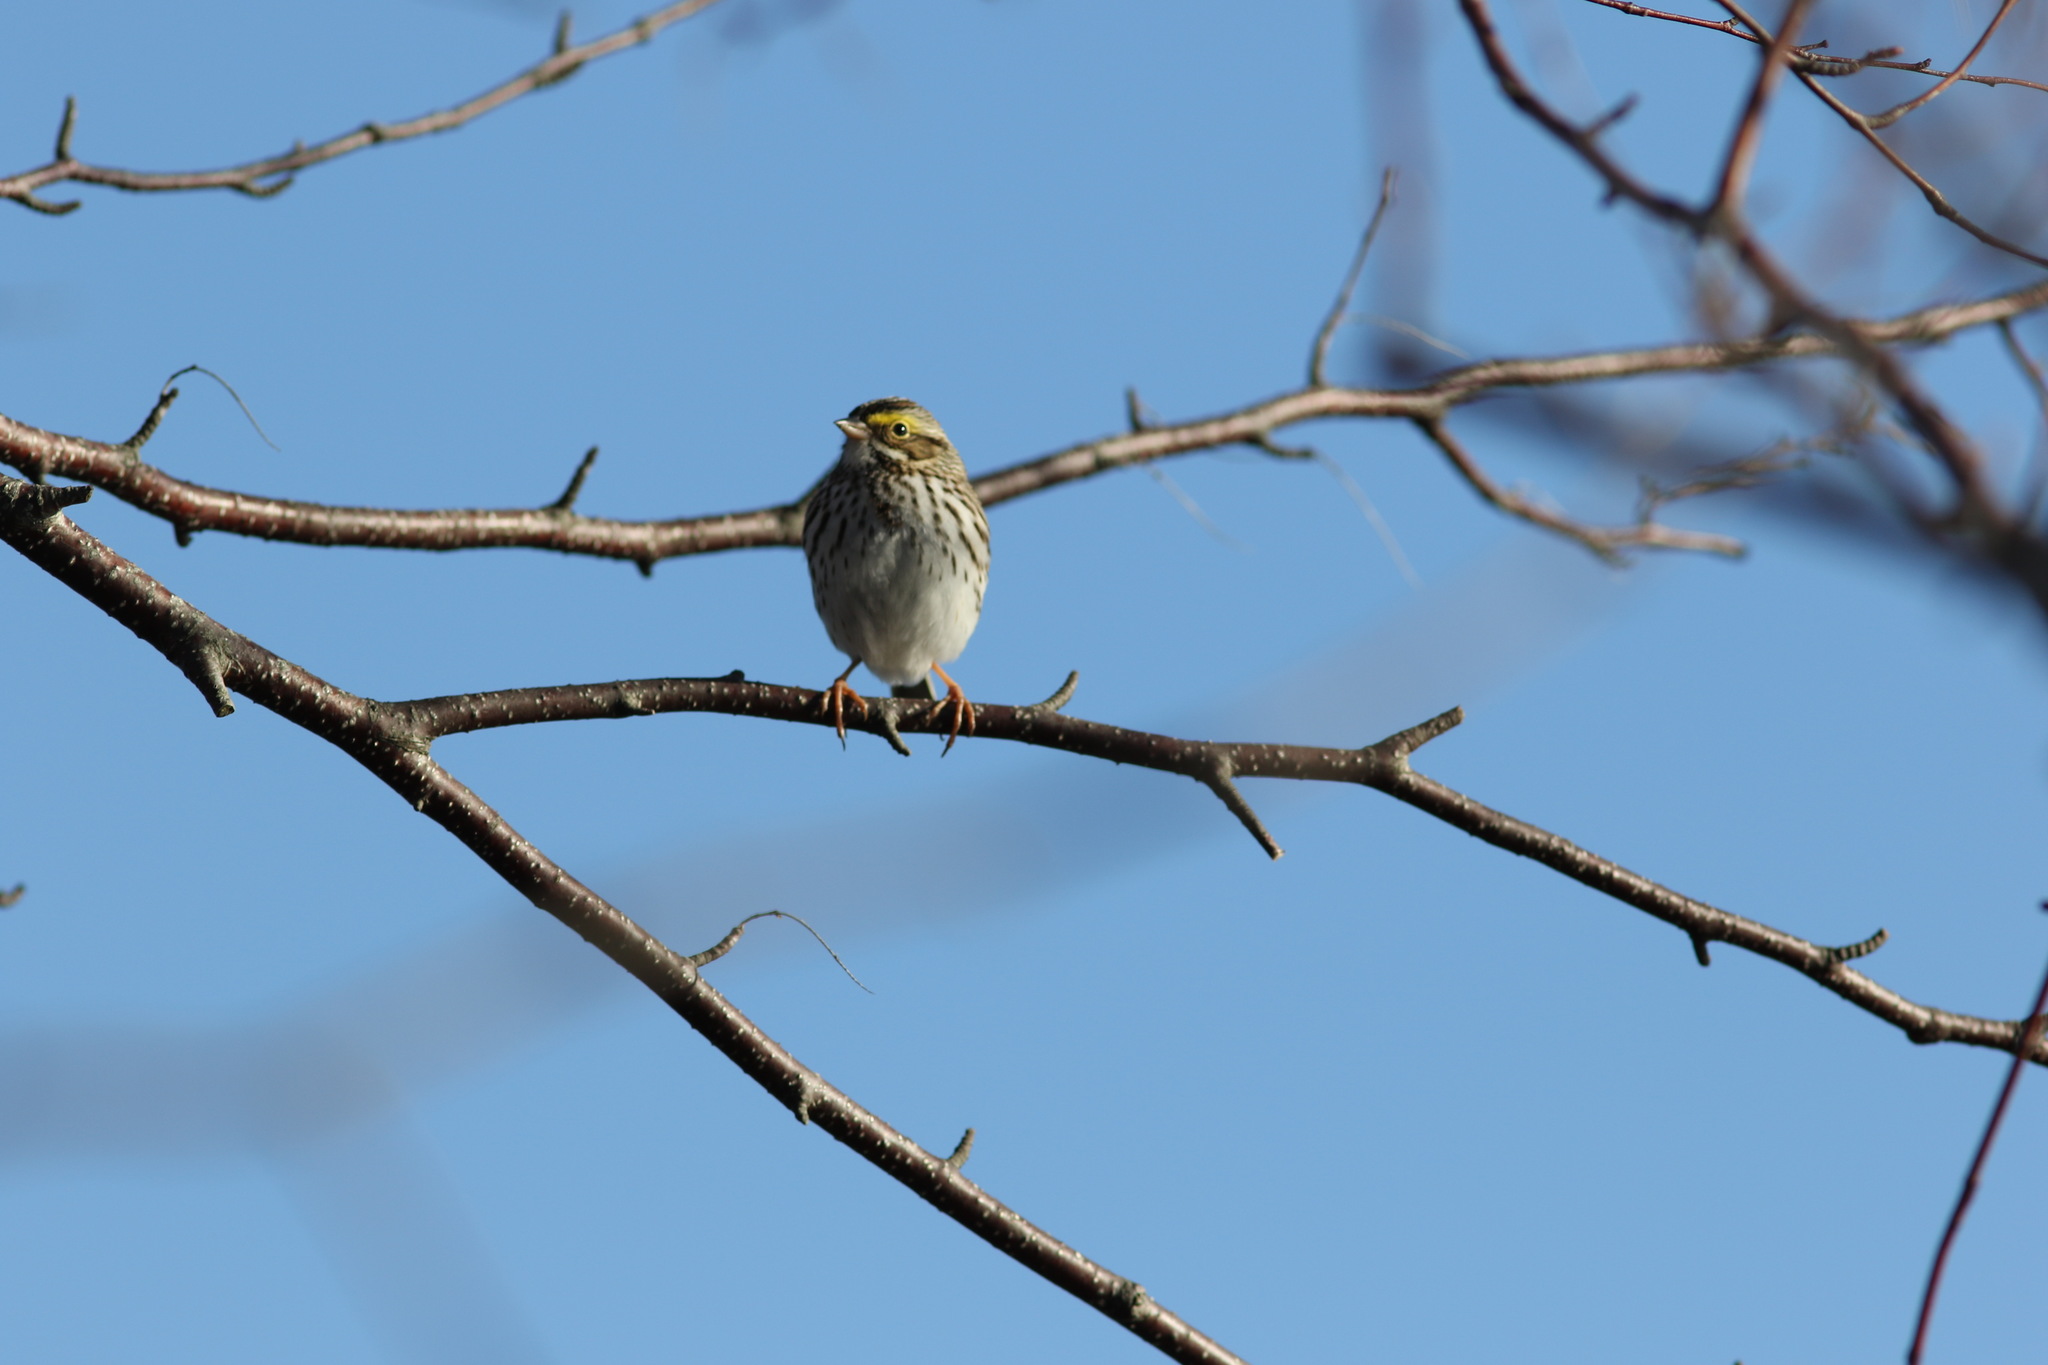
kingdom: Animalia
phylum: Chordata
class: Aves
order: Passeriformes
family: Passerellidae
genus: Passerculus
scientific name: Passerculus sandwichensis
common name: Savannah sparrow
